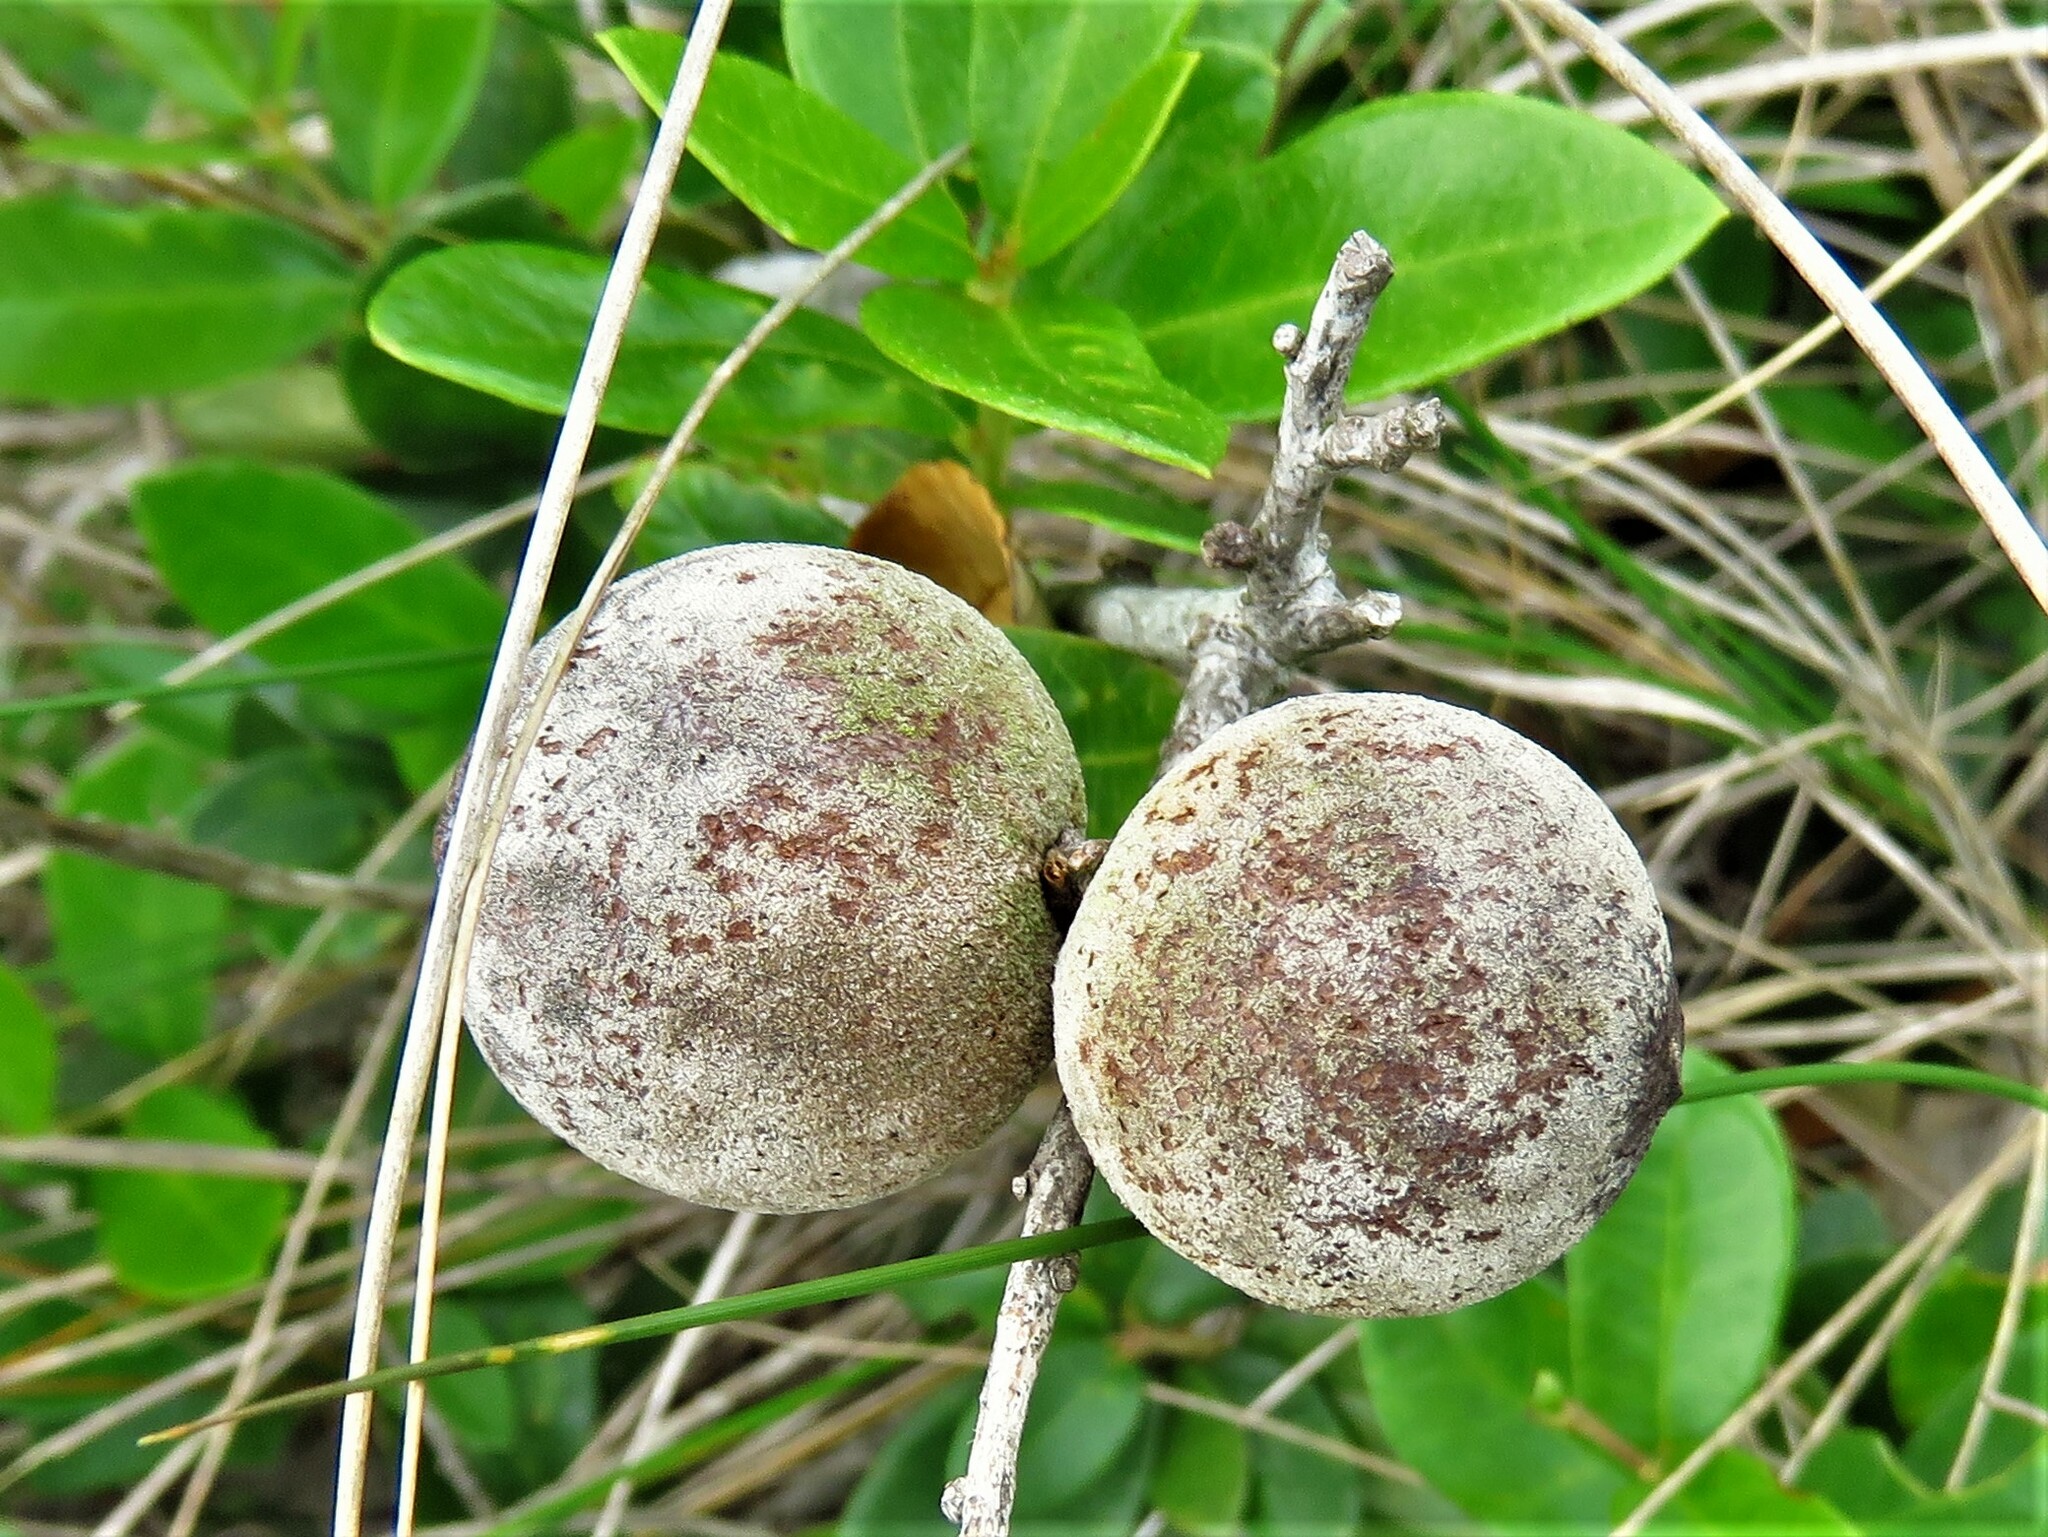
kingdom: Animalia
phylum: Arthropoda
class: Insecta
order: Hymenoptera
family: Cynipidae
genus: Disholcaspis
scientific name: Disholcaspis
